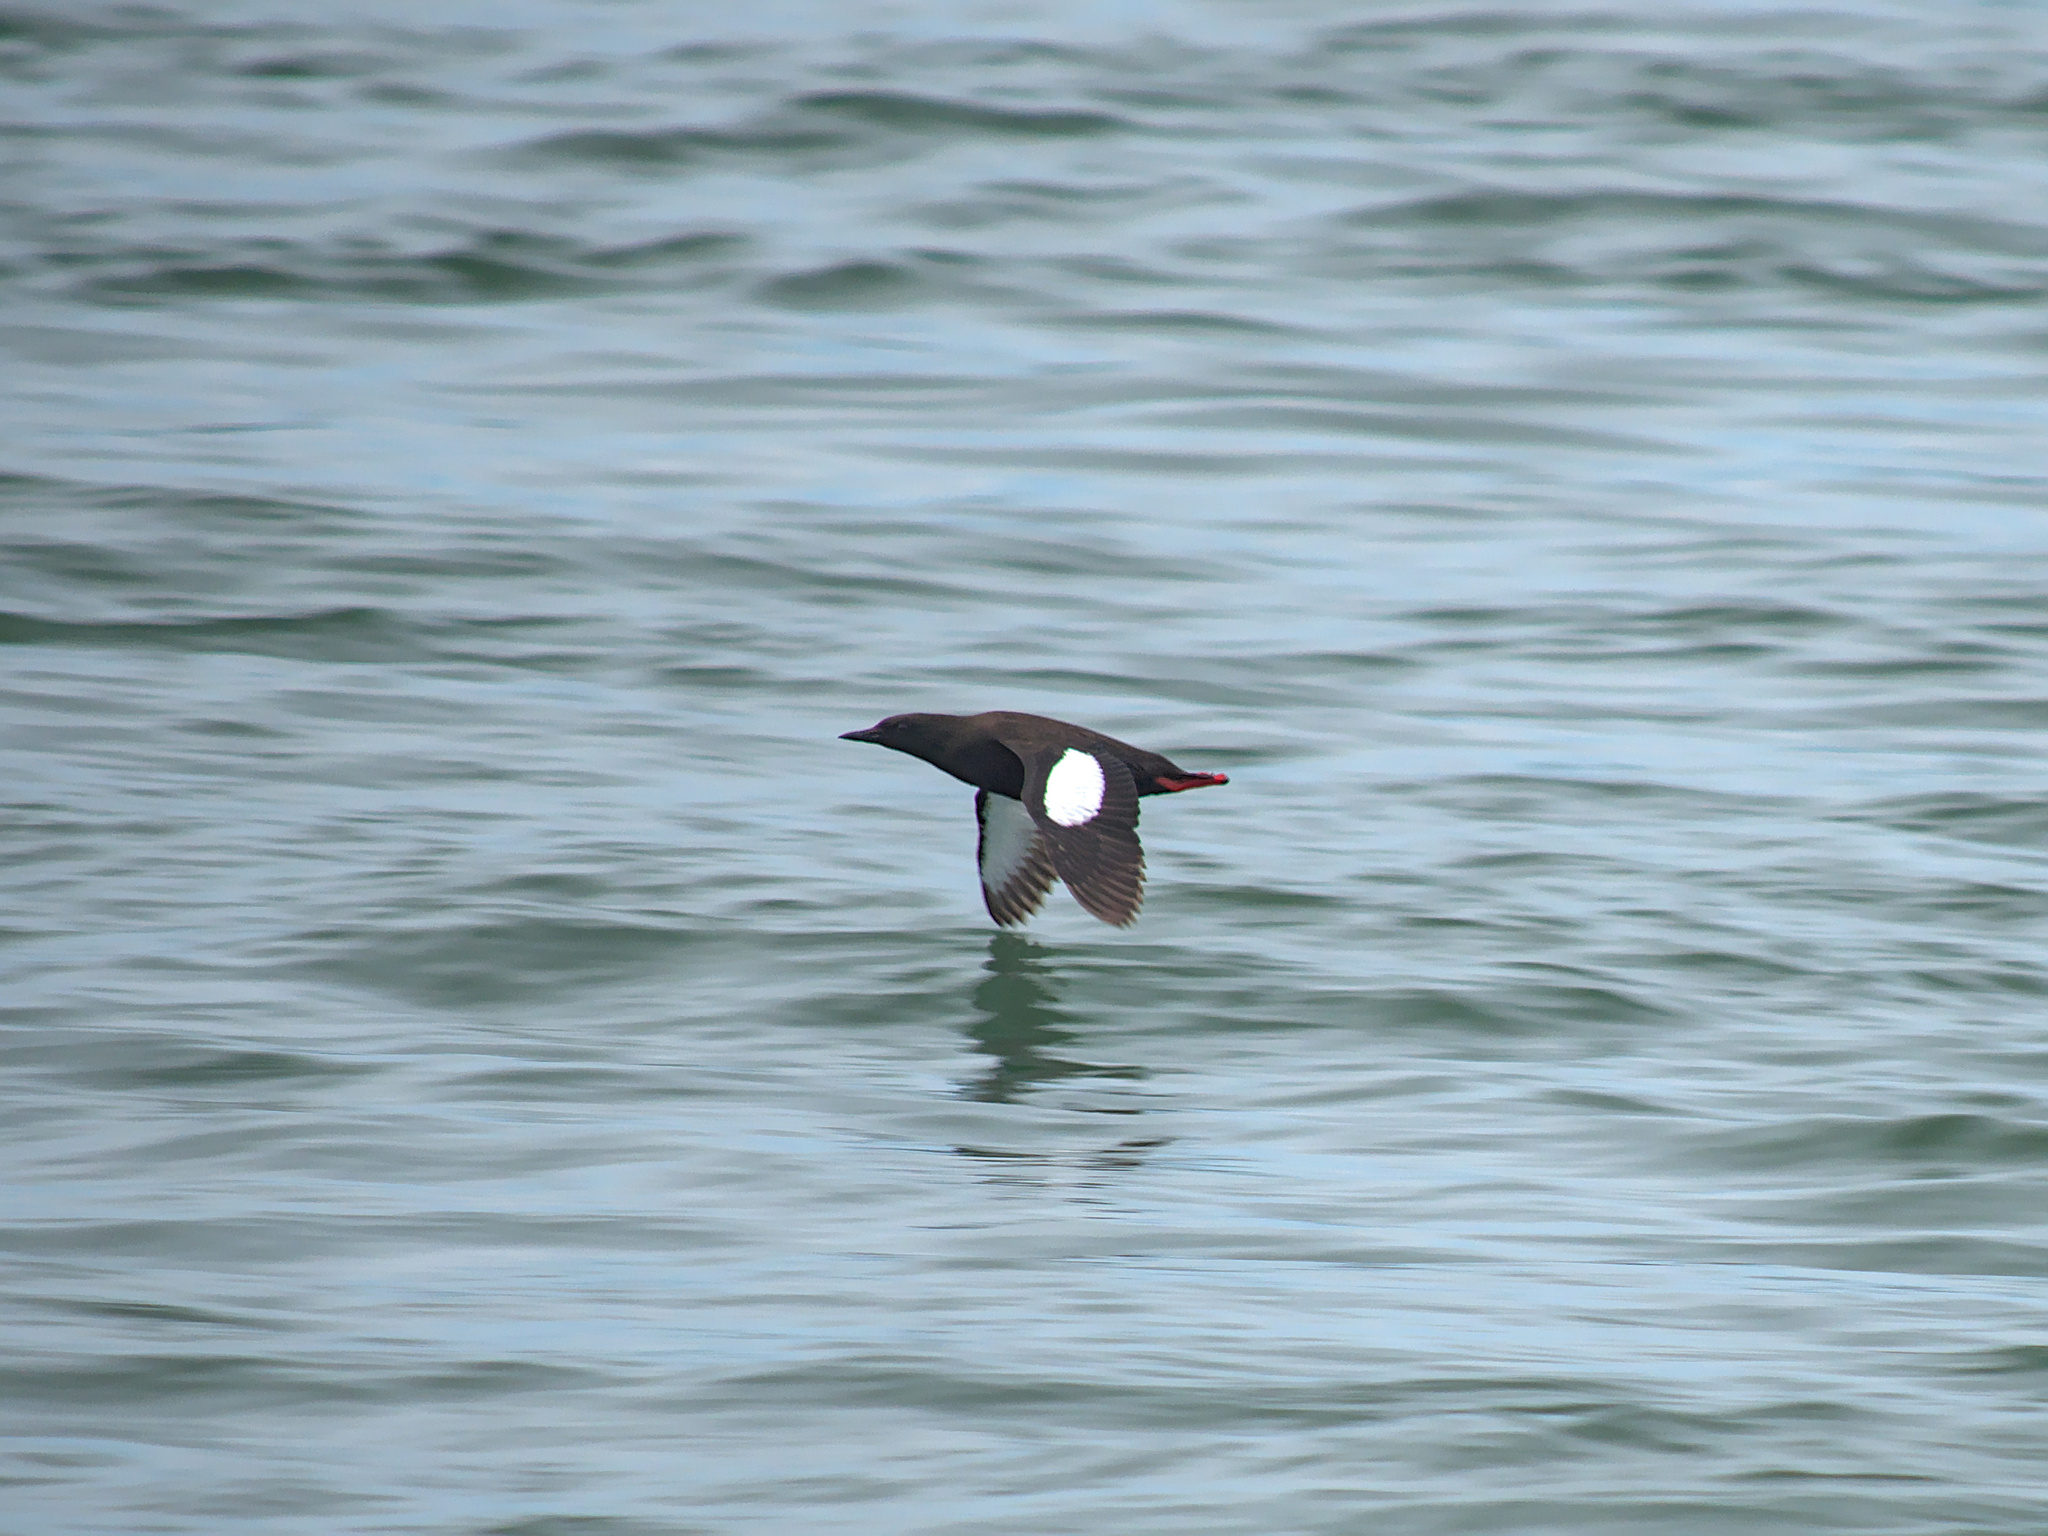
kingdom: Animalia
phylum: Chordata
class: Aves
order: Charadriiformes
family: Alcidae
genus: Cepphus
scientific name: Cepphus grylle
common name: Black guillemot
